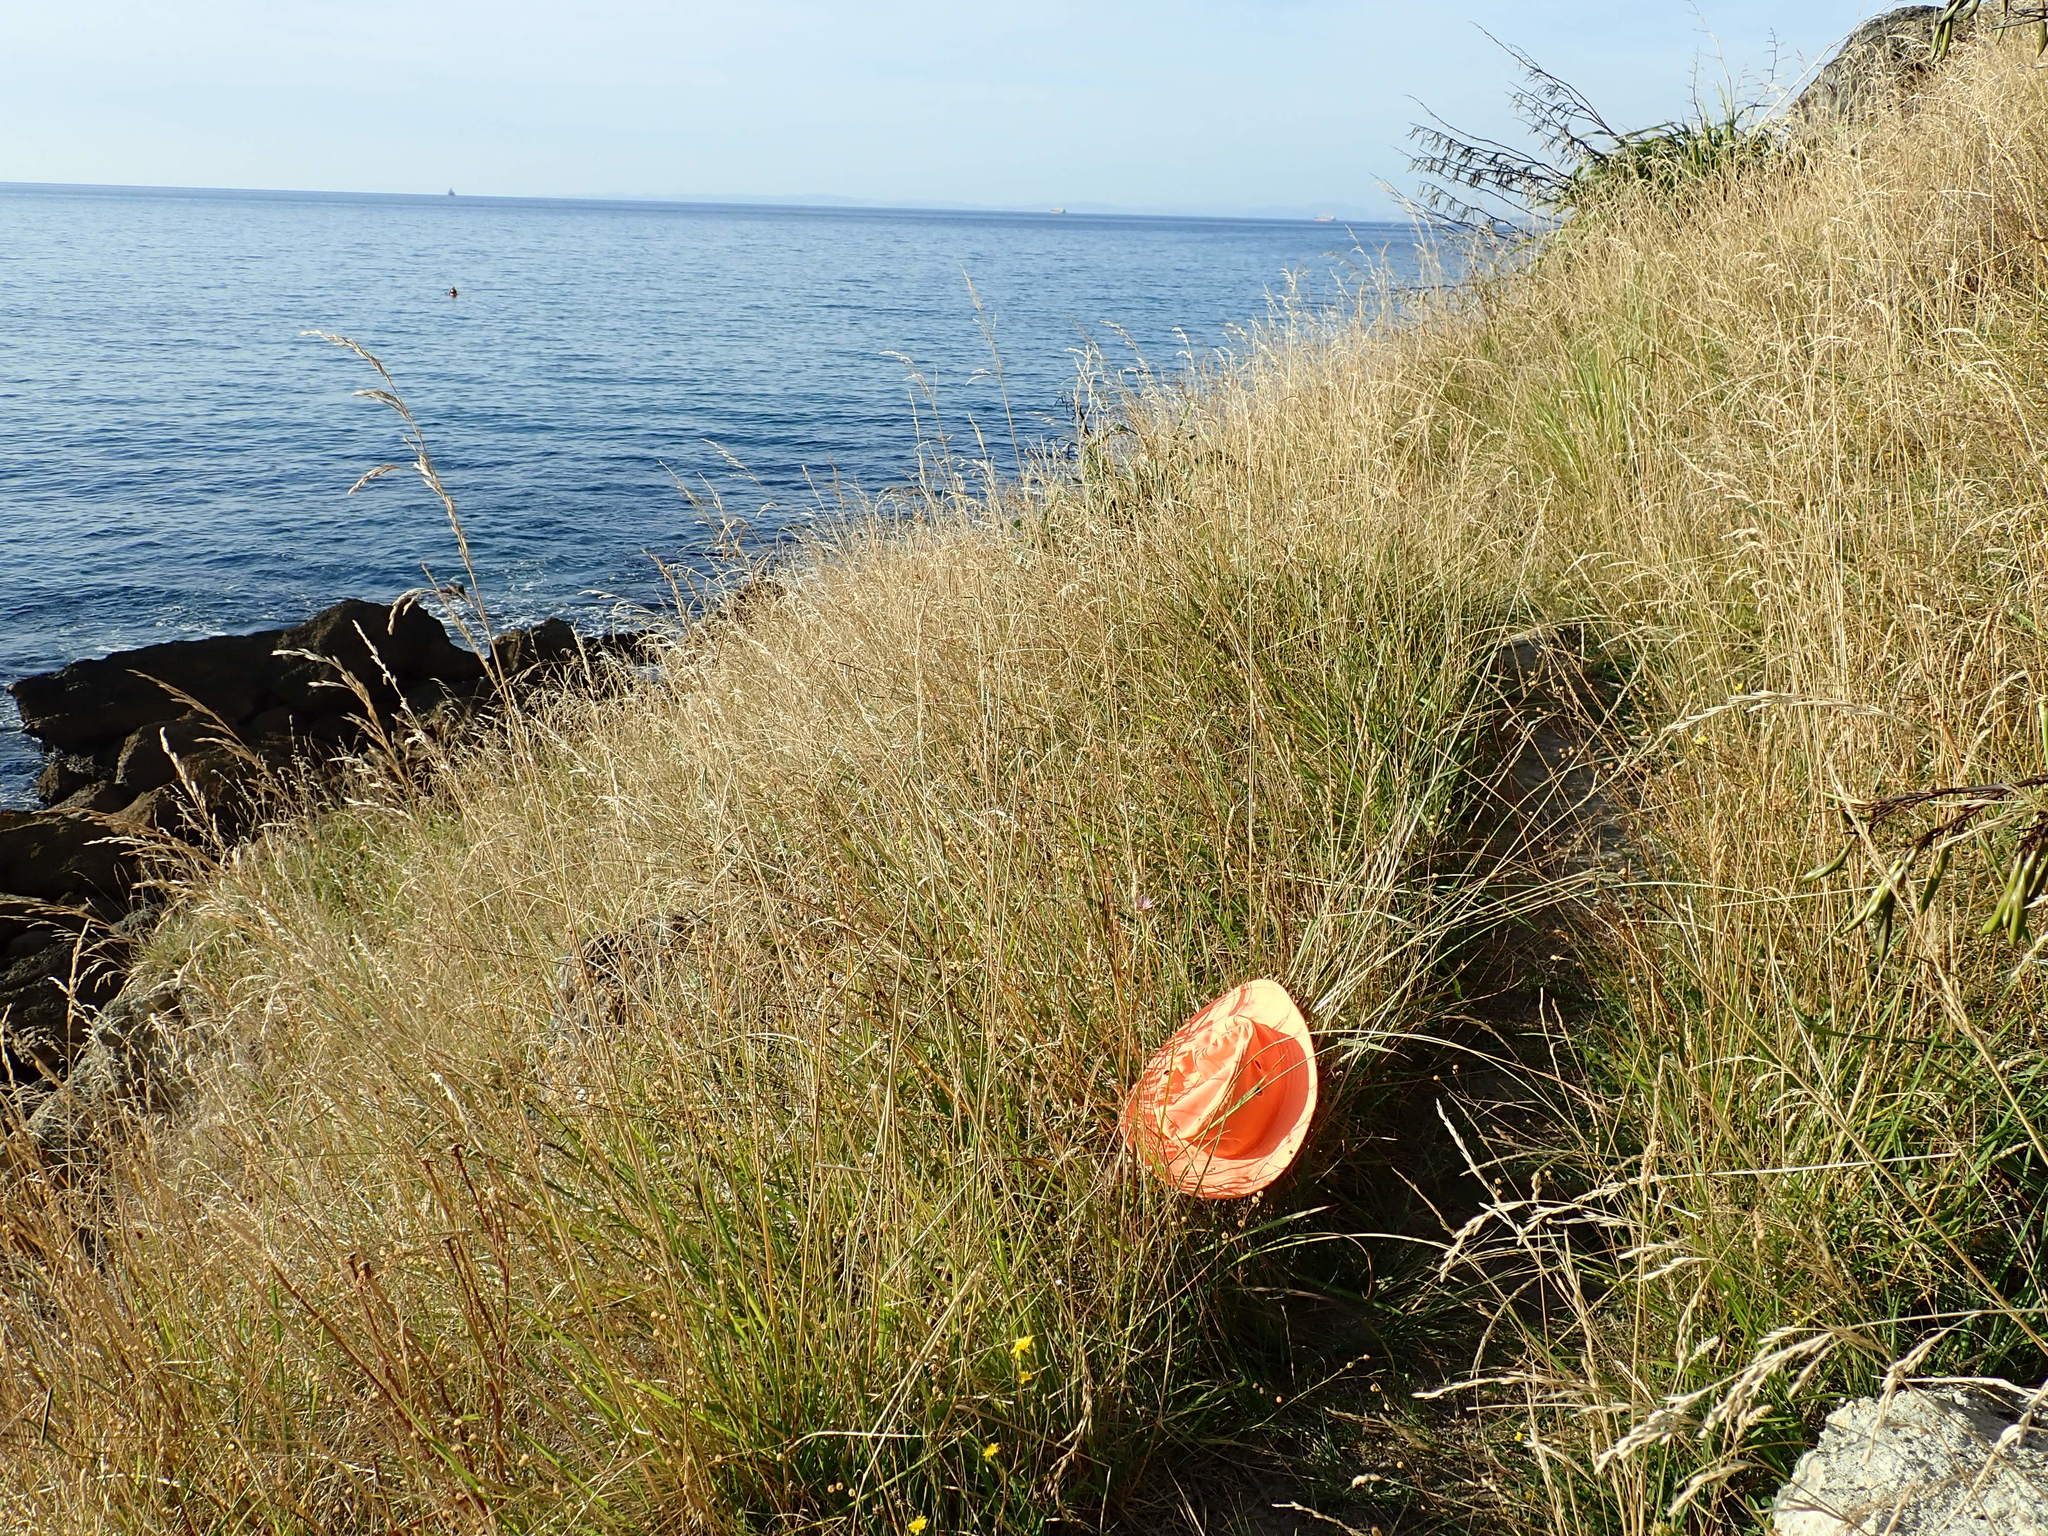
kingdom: Plantae
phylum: Tracheophyta
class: Magnoliopsida
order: Asterales
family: Asteraceae
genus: Tragopogon
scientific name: Tragopogon porrifolius
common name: Salsify
